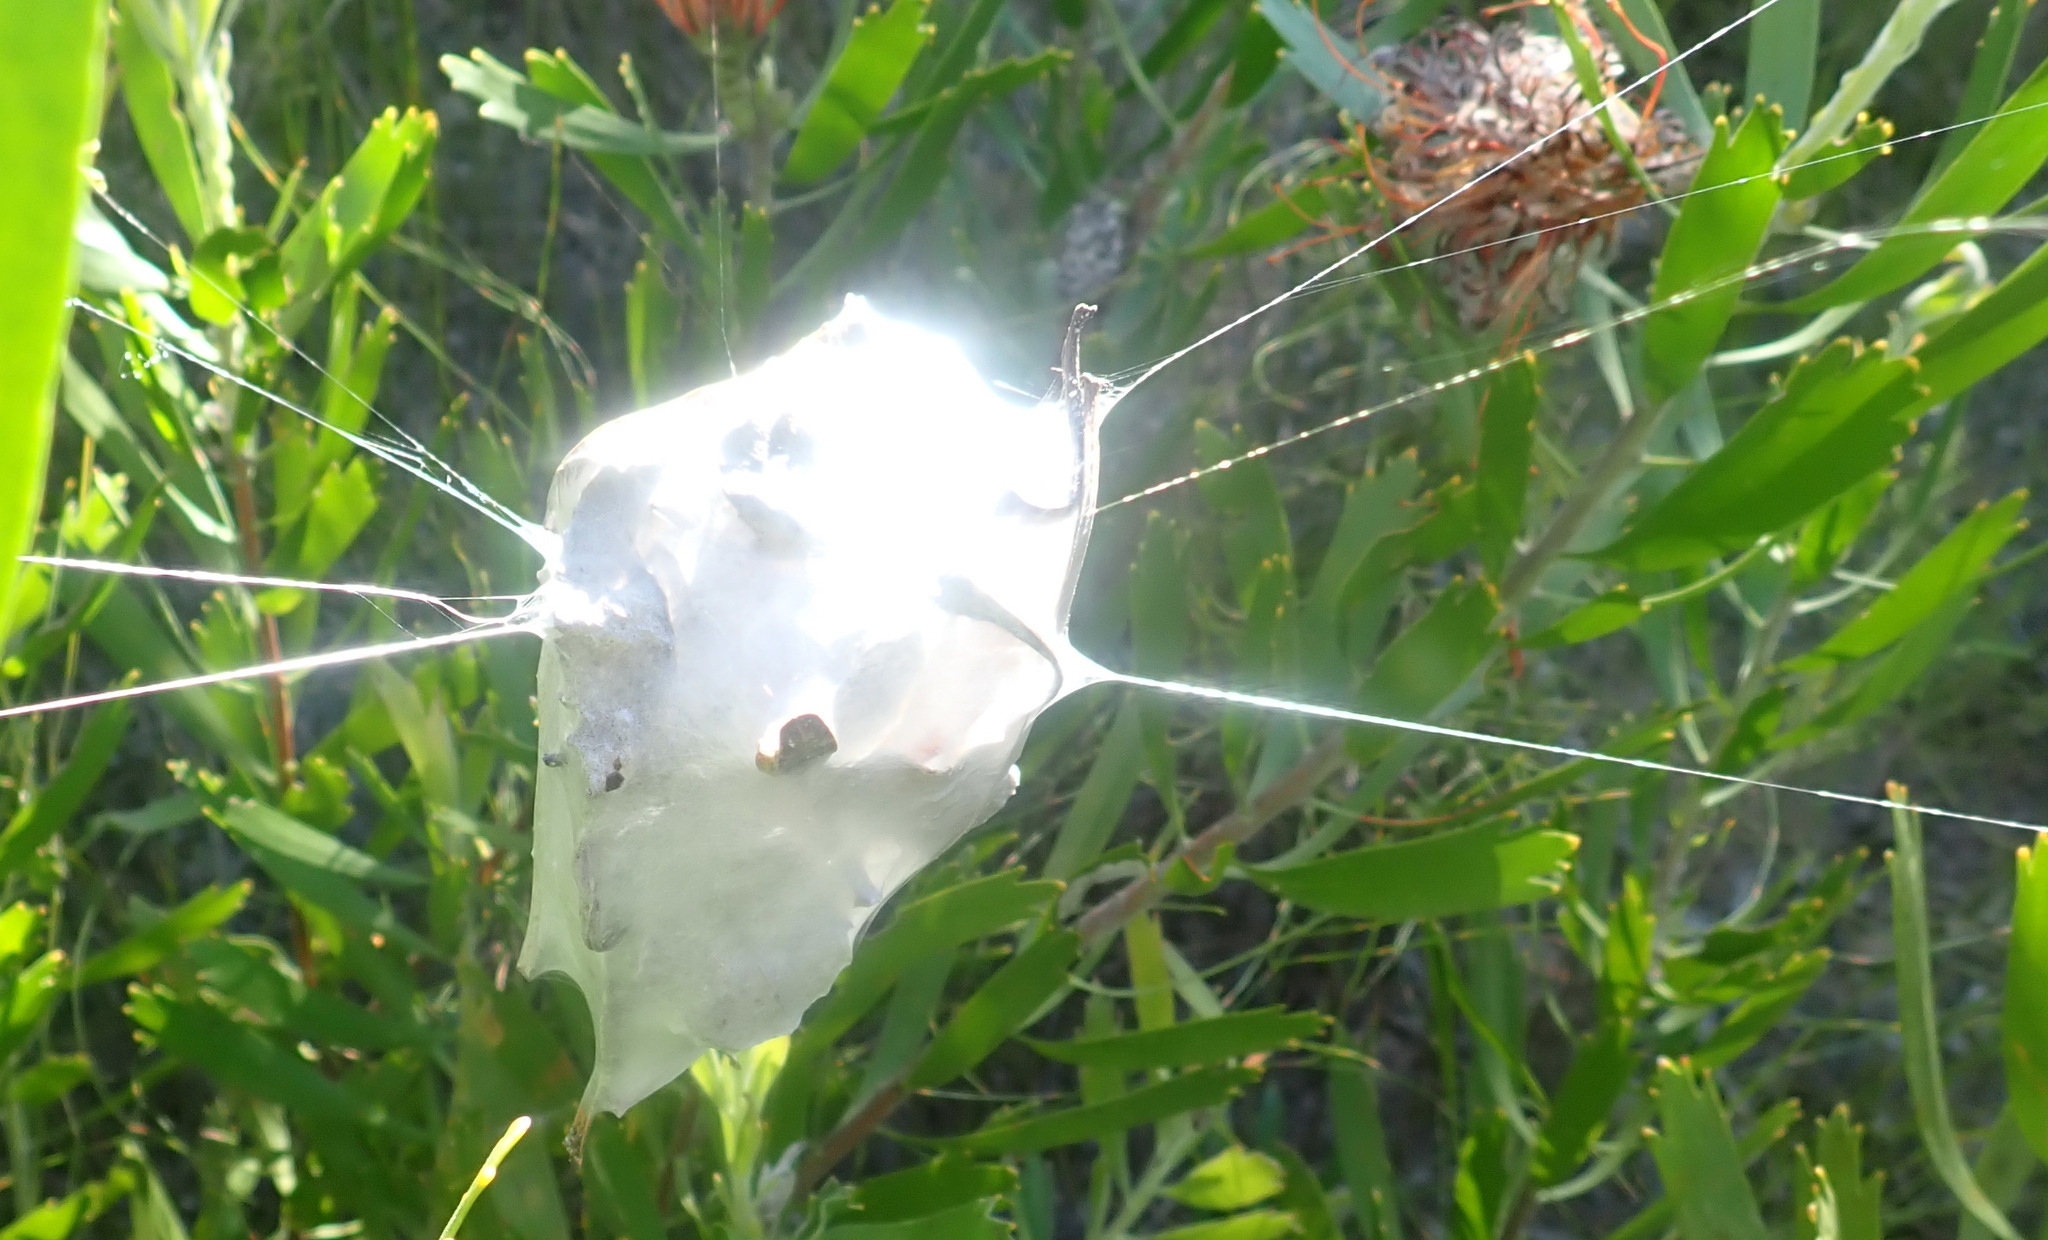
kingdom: Animalia
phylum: Arthropoda
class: Arachnida
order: Araneae
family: Sparassidae
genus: Palystes
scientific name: Palystes superciliosus
